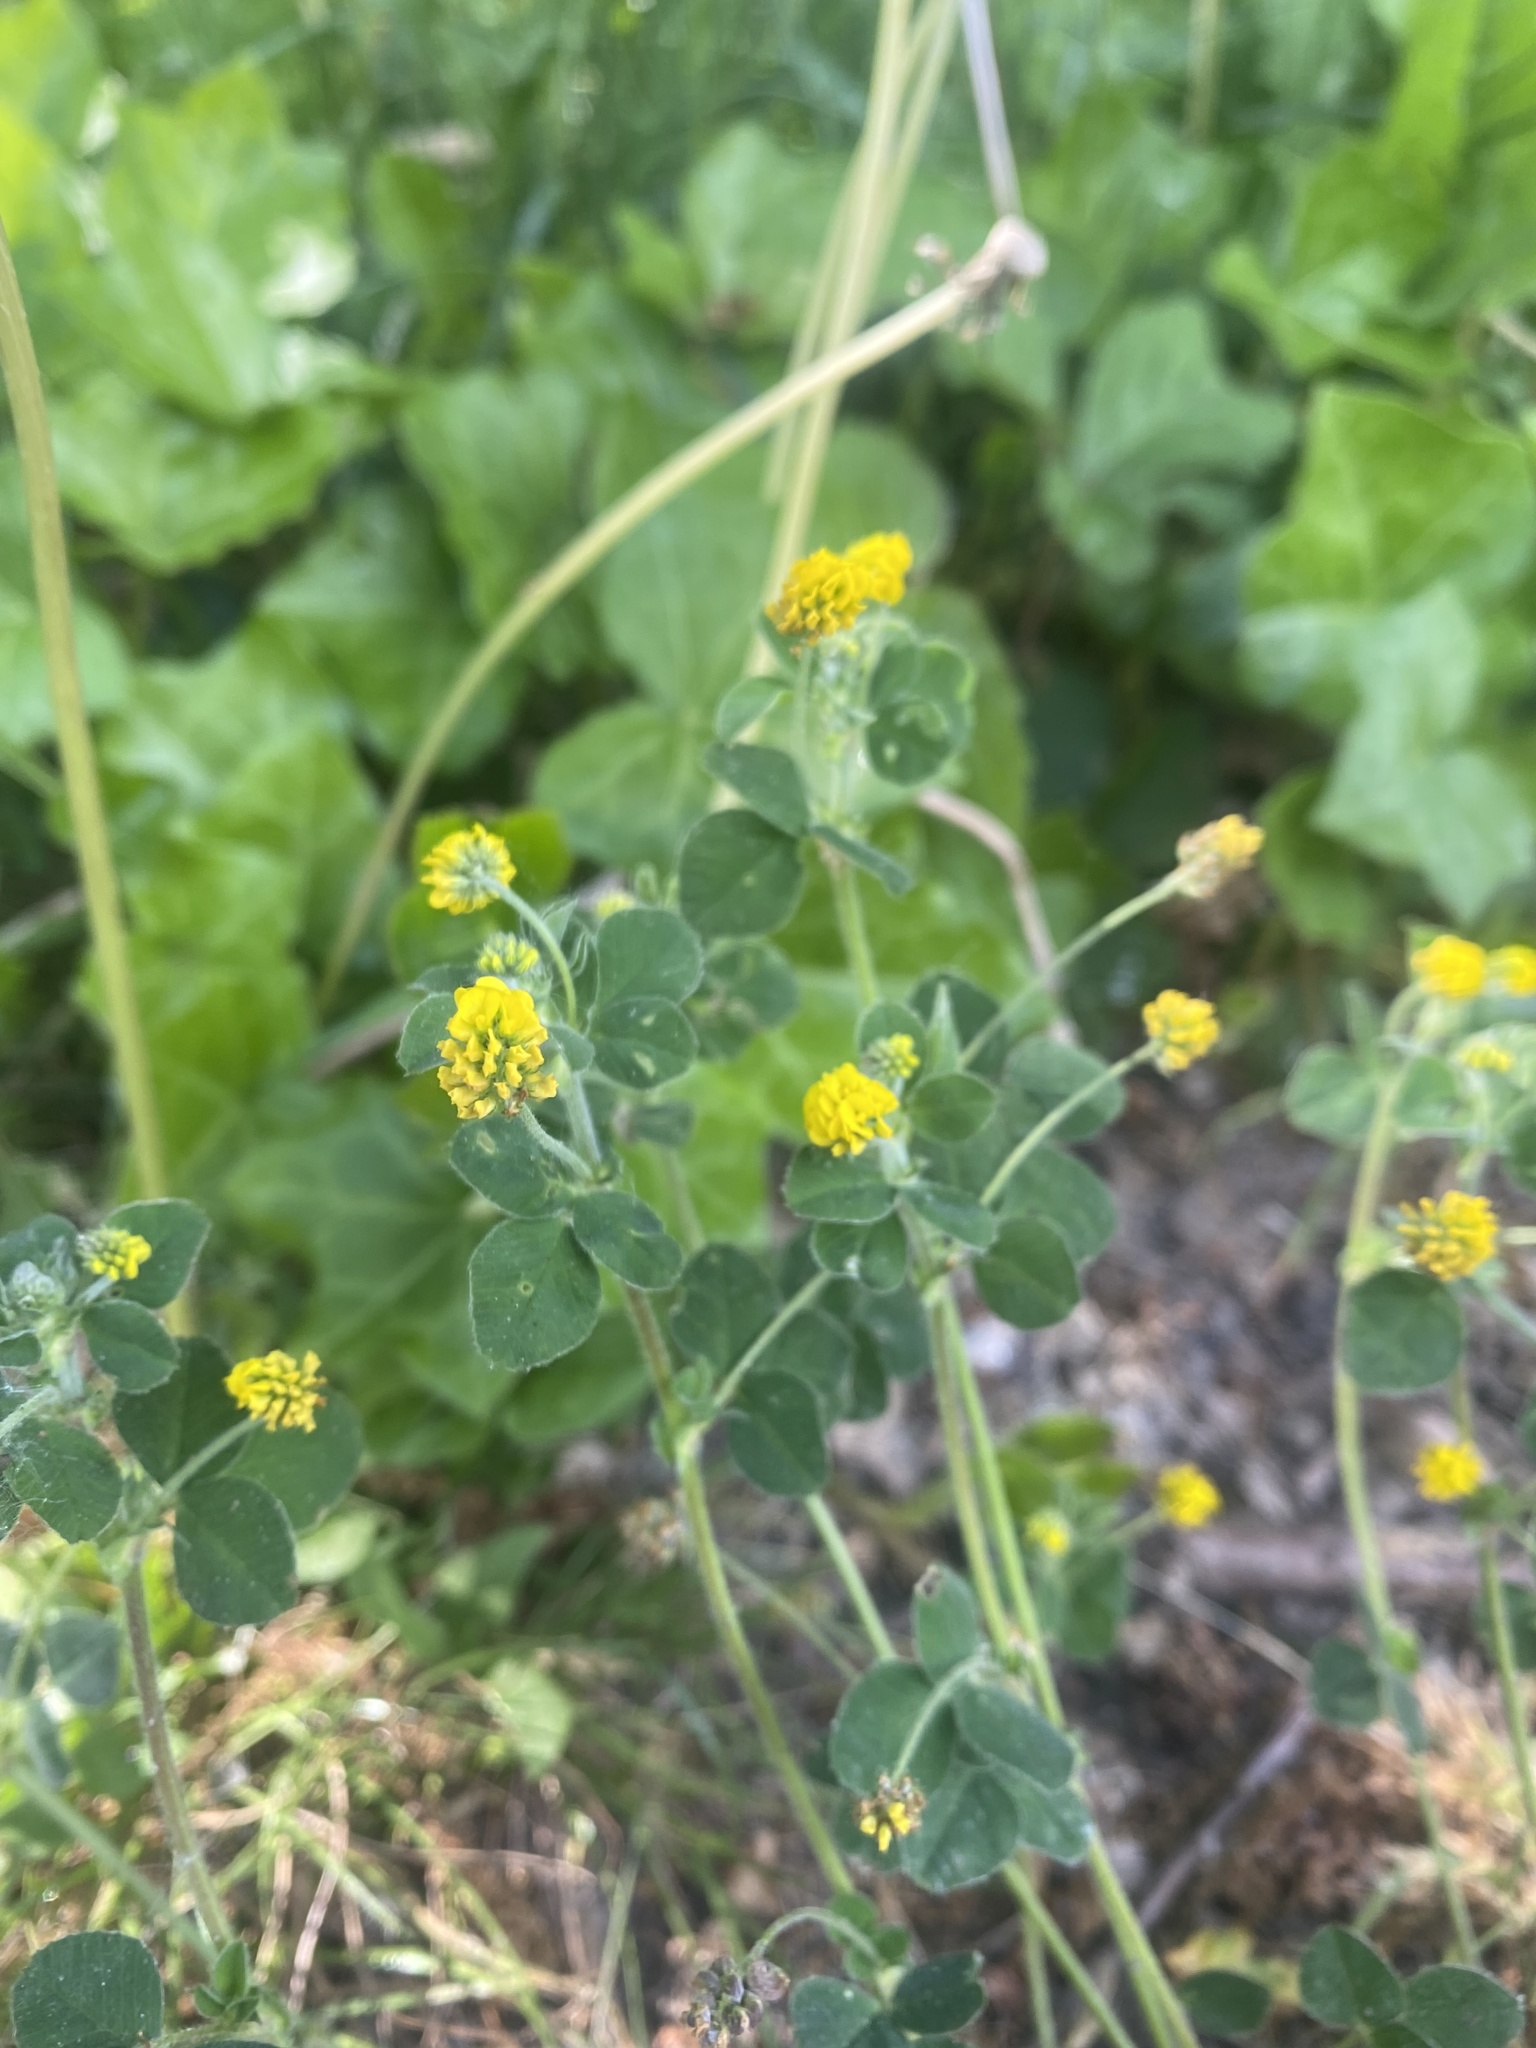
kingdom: Plantae
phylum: Tracheophyta
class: Magnoliopsida
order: Fabales
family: Fabaceae
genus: Medicago
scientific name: Medicago lupulina
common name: Black medick
